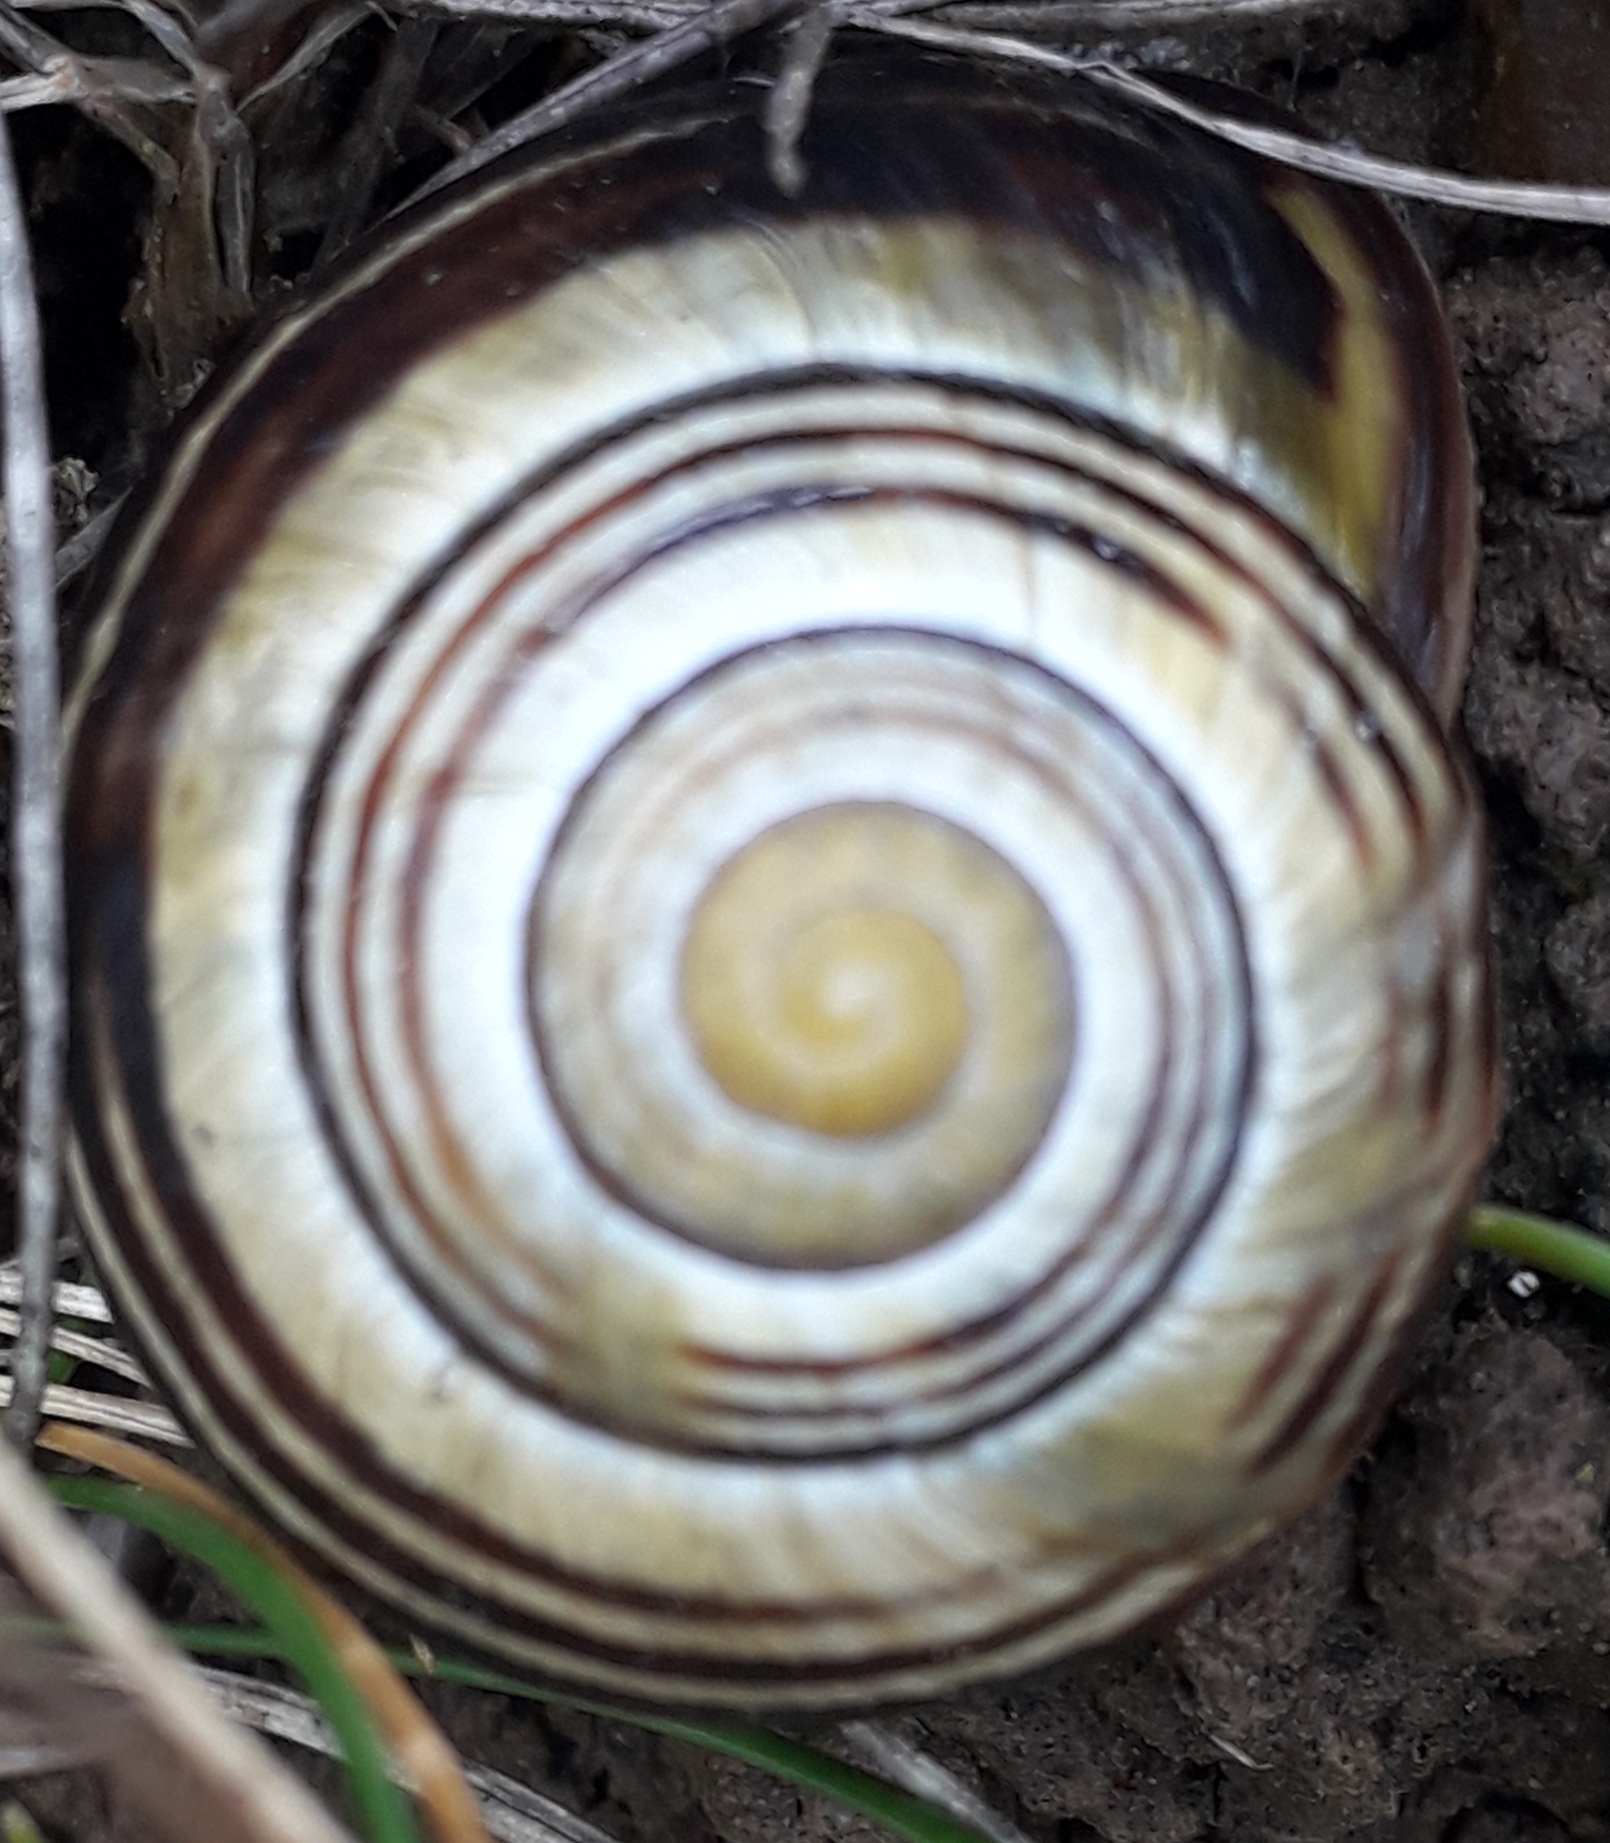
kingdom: Animalia
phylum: Mollusca
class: Gastropoda
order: Stylommatophora
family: Helicidae
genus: Cepaea
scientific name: Cepaea nemoralis
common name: Grovesnail
